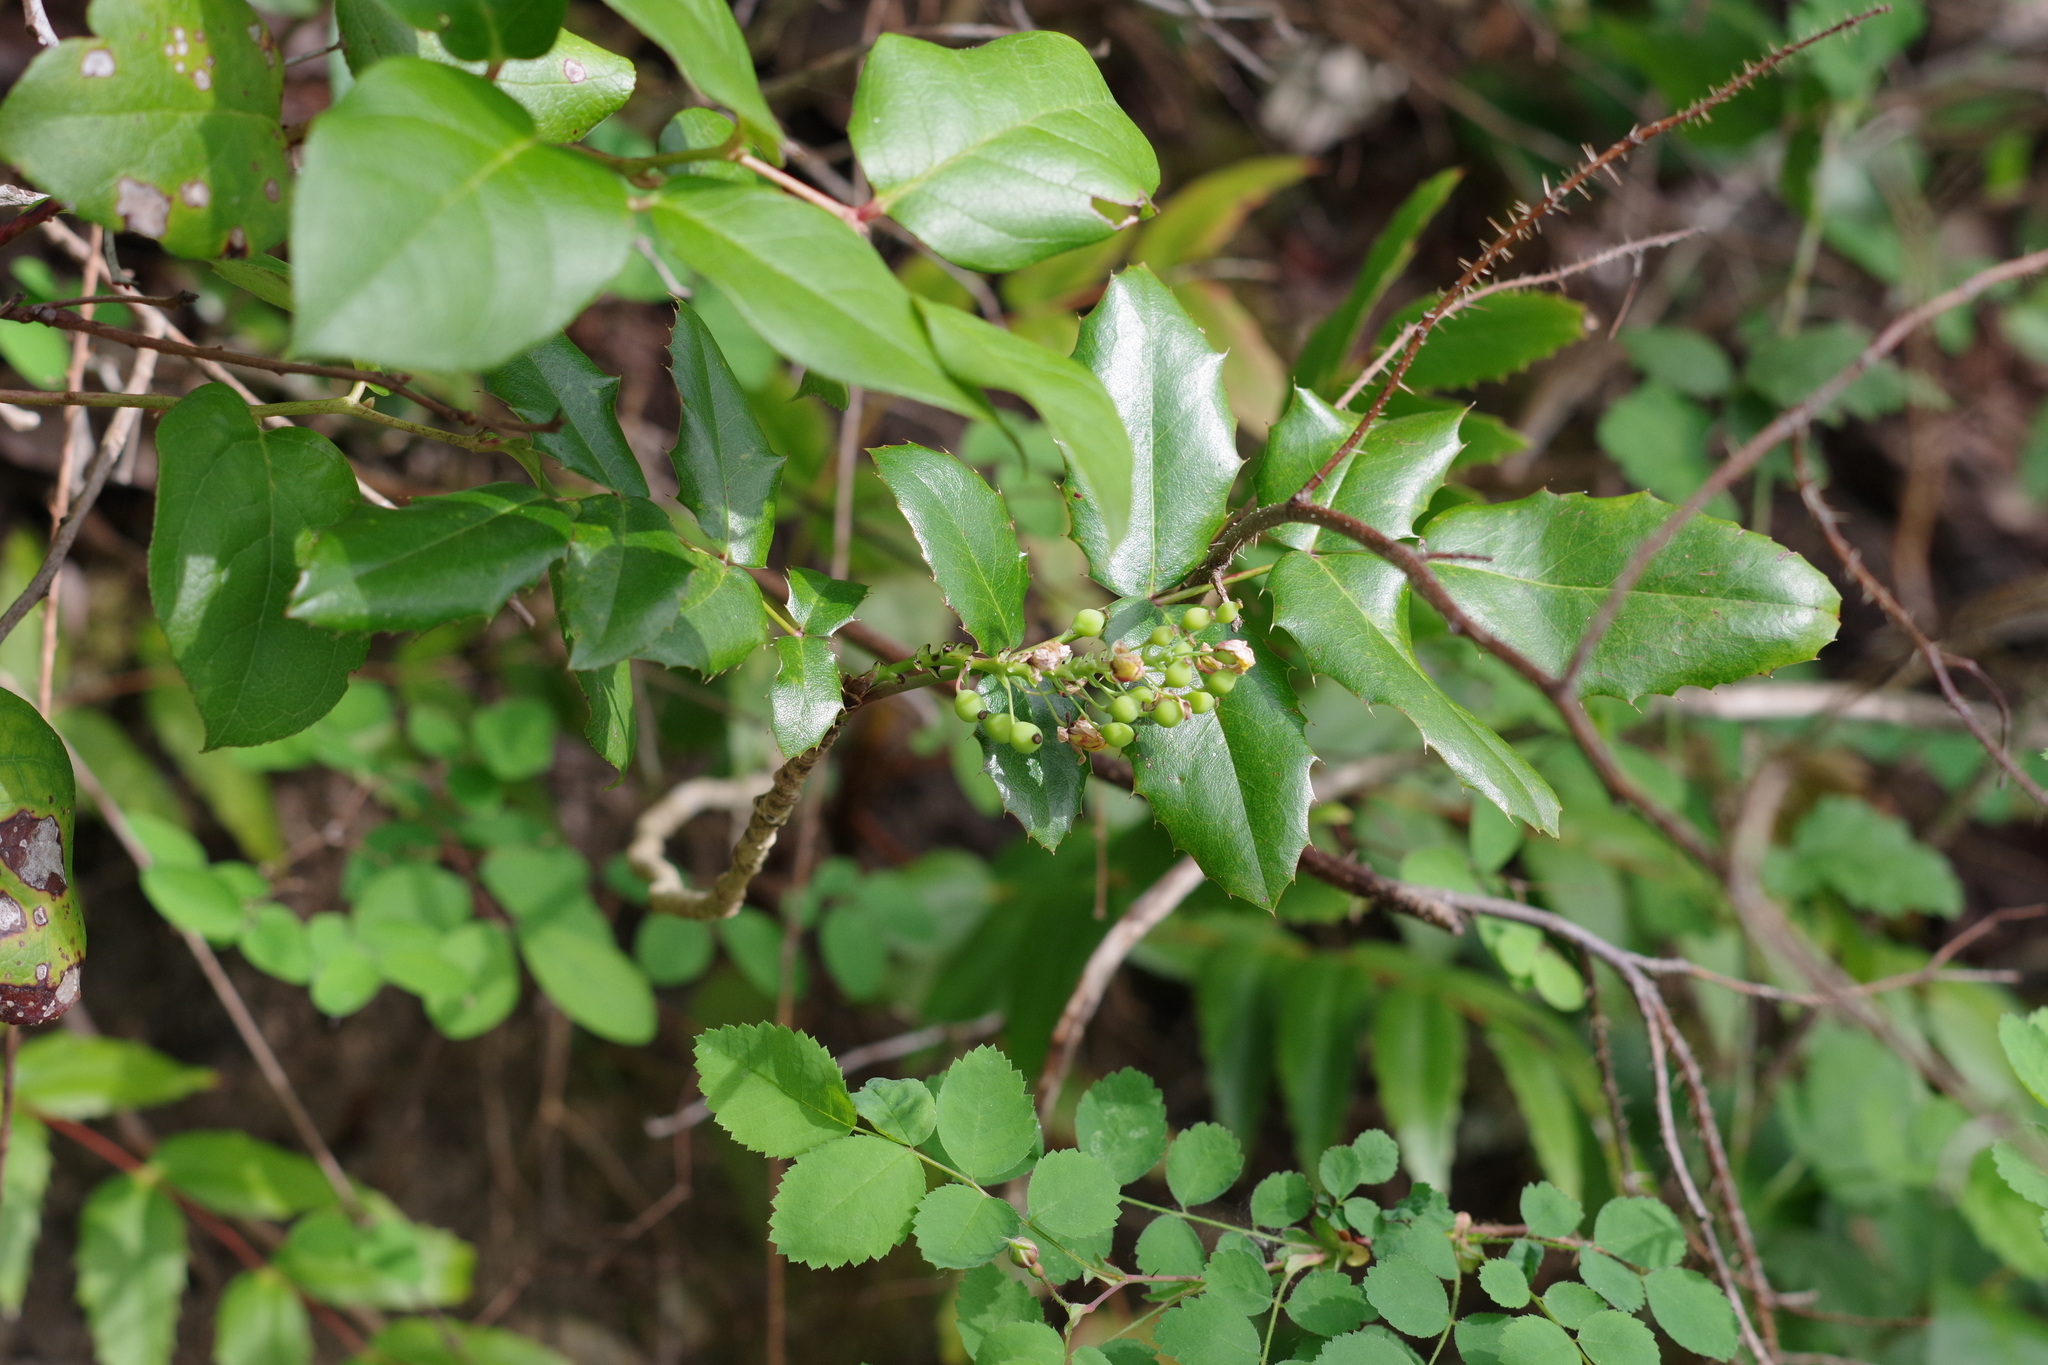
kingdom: Plantae
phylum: Tracheophyta
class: Magnoliopsida
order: Ranunculales
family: Berberidaceae
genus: Mahonia
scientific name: Mahonia aquifolium
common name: Oregon-grape
